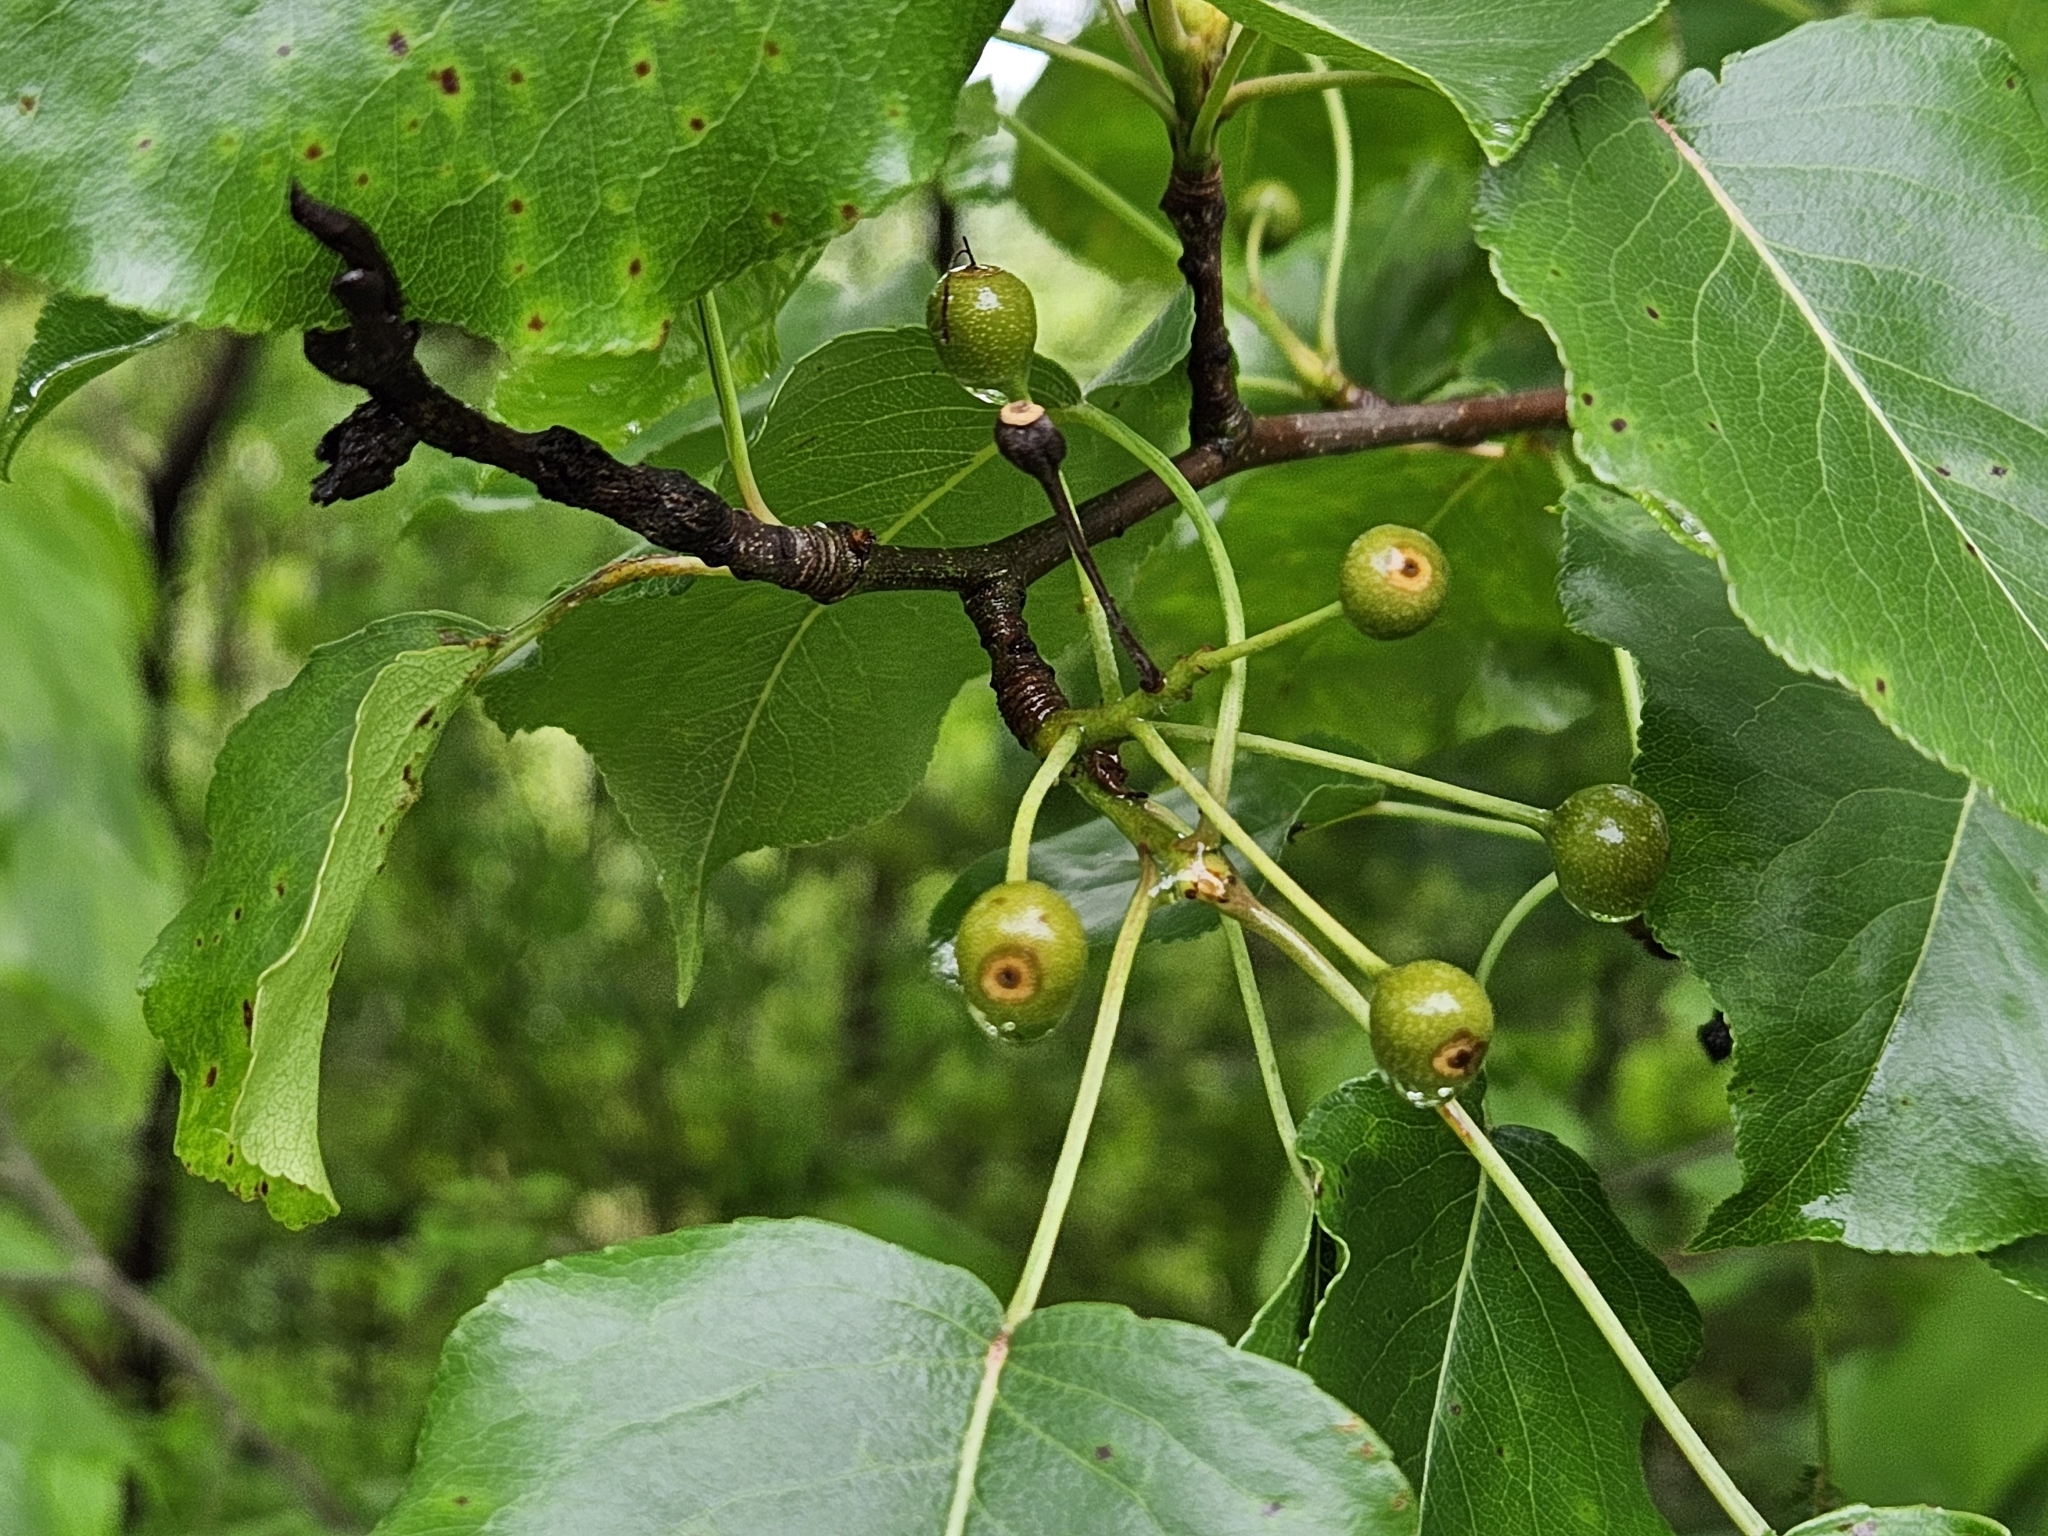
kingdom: Plantae
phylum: Tracheophyta
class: Magnoliopsida
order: Rosales
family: Rosaceae
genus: Pyrus
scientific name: Pyrus calleryana
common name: Callery pear
